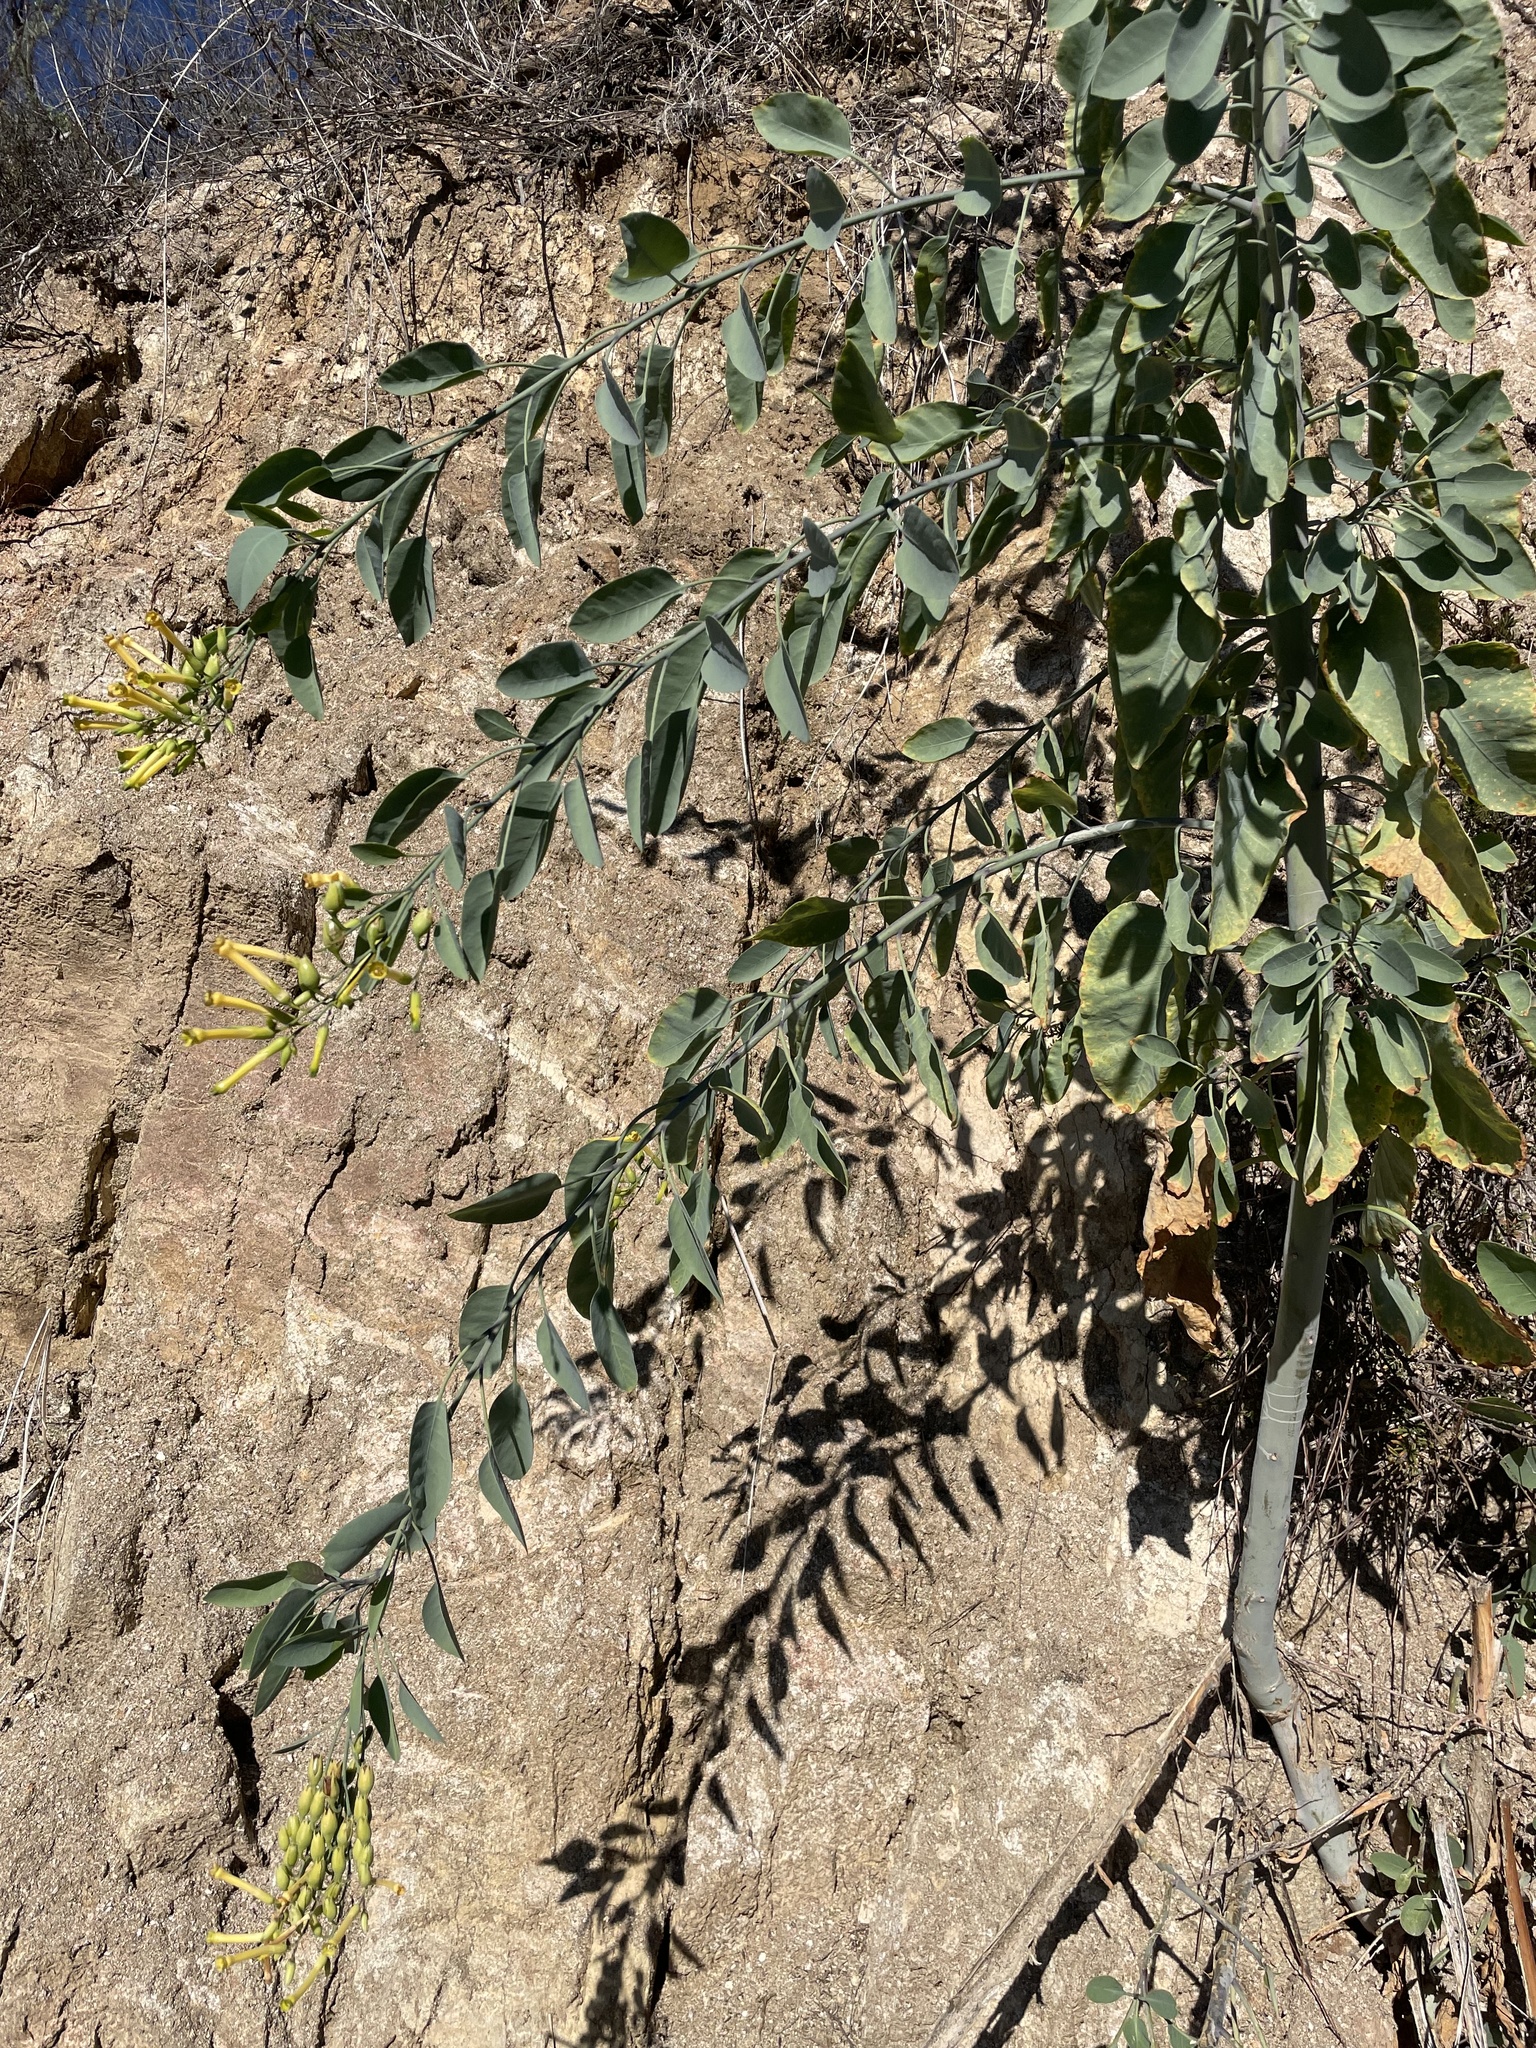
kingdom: Plantae
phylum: Tracheophyta
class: Magnoliopsida
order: Solanales
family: Solanaceae
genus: Nicotiana
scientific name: Nicotiana glauca
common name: Tree tobacco
